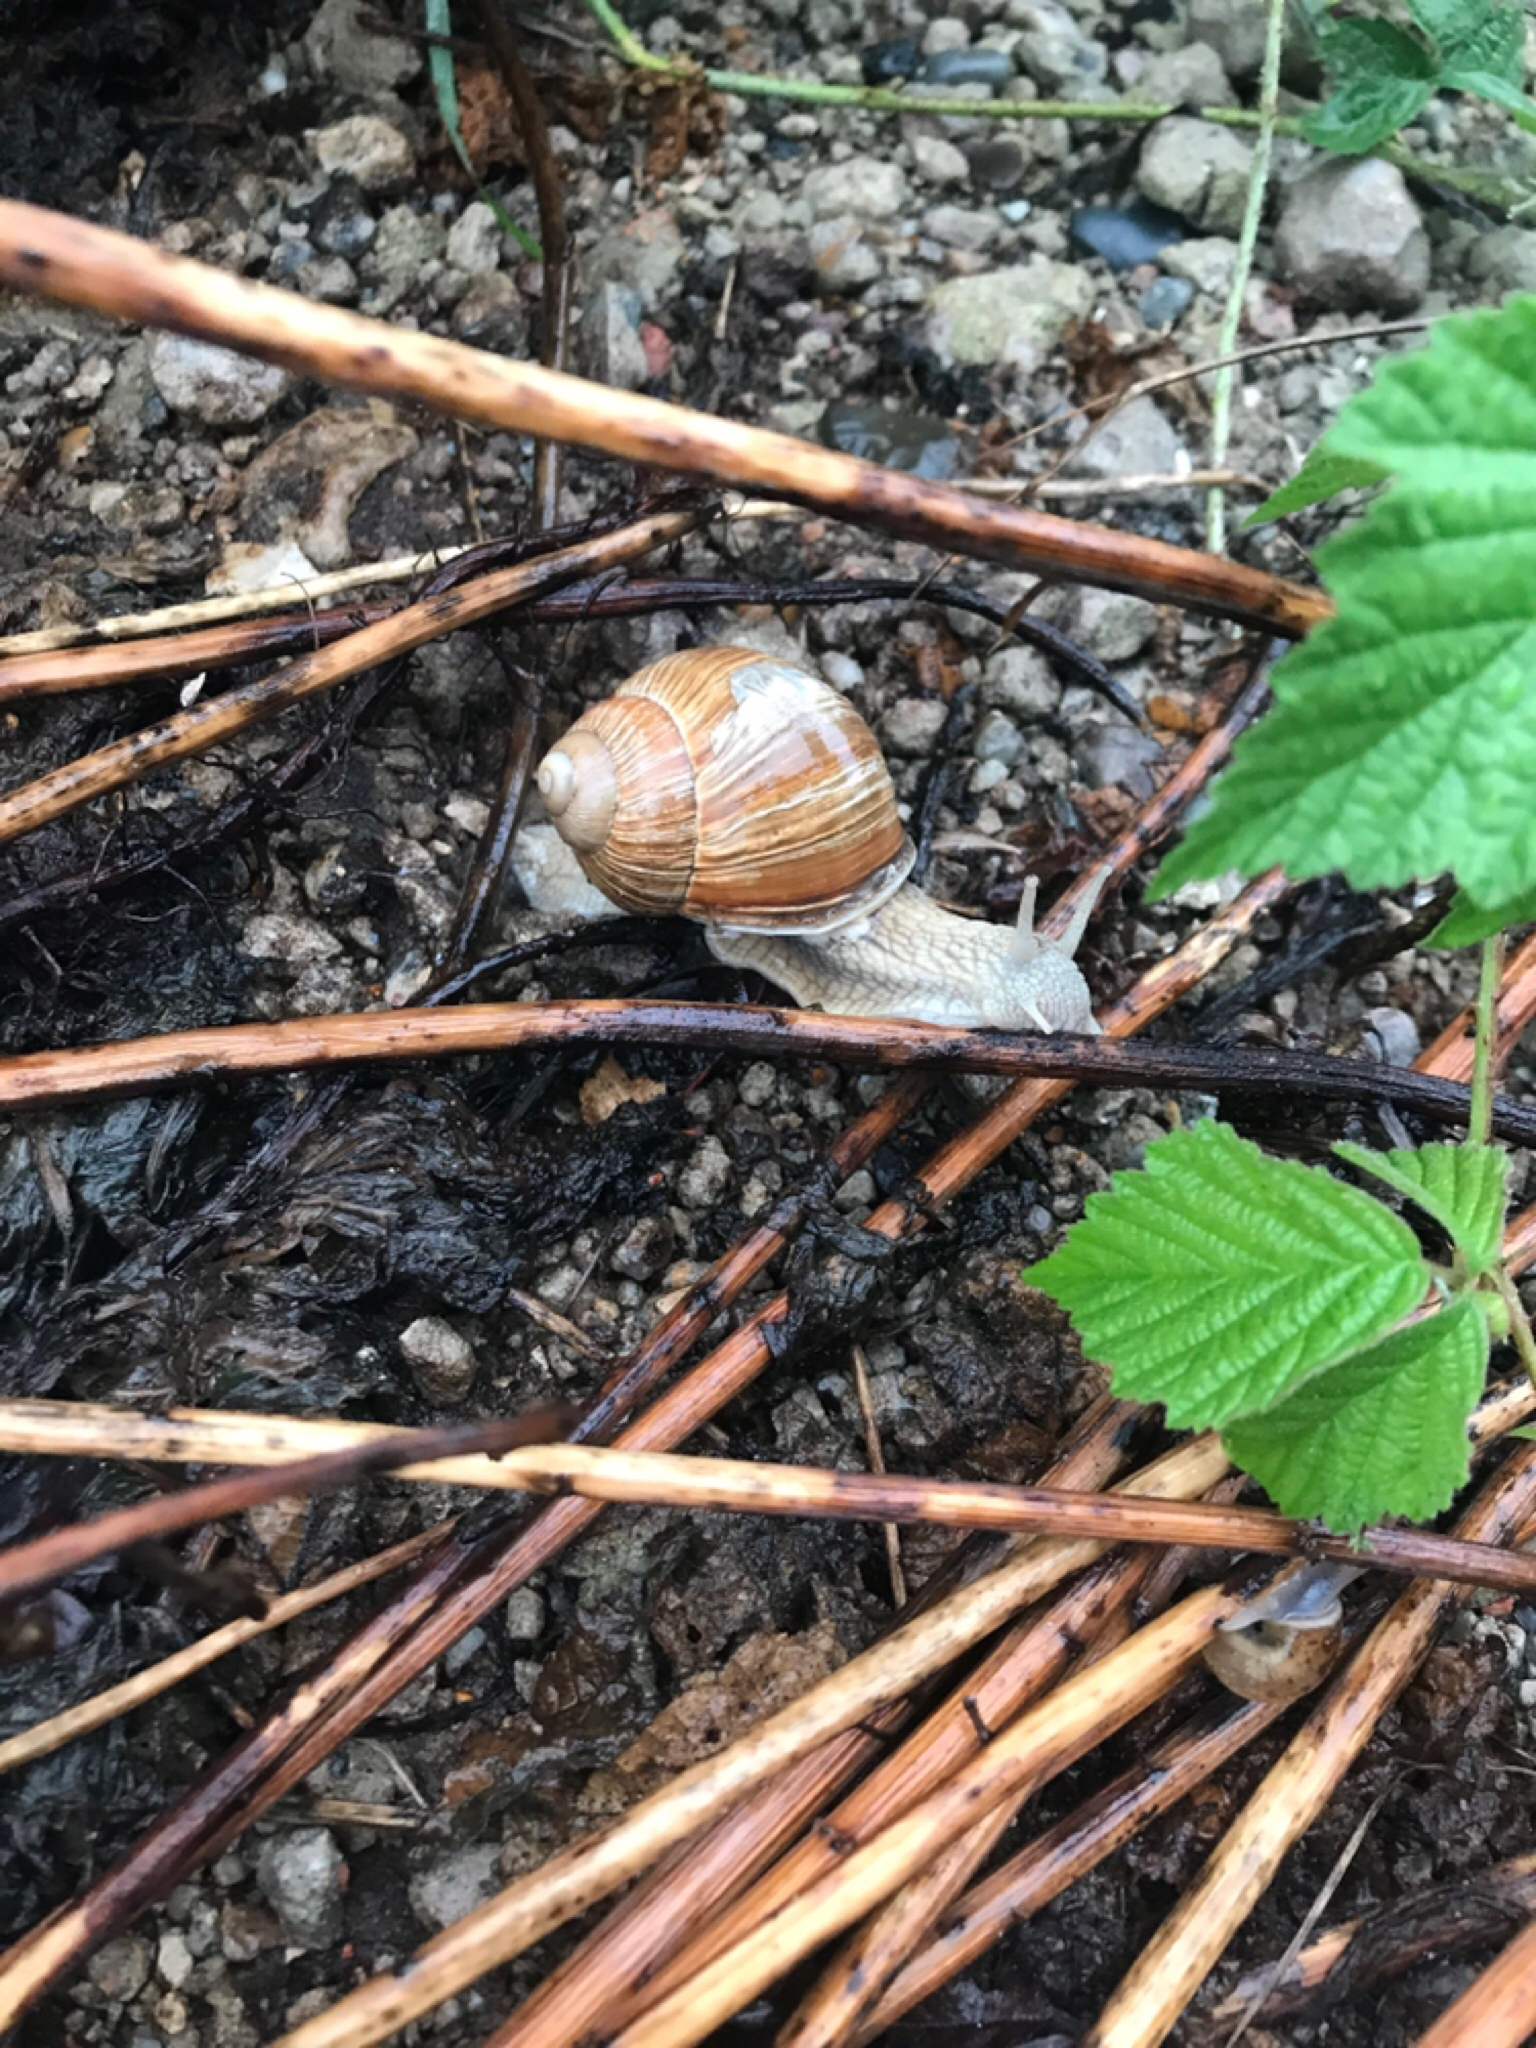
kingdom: Animalia
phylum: Mollusca
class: Gastropoda
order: Stylommatophora
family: Helicidae
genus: Helix
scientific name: Helix pomatia
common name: Roman snail
